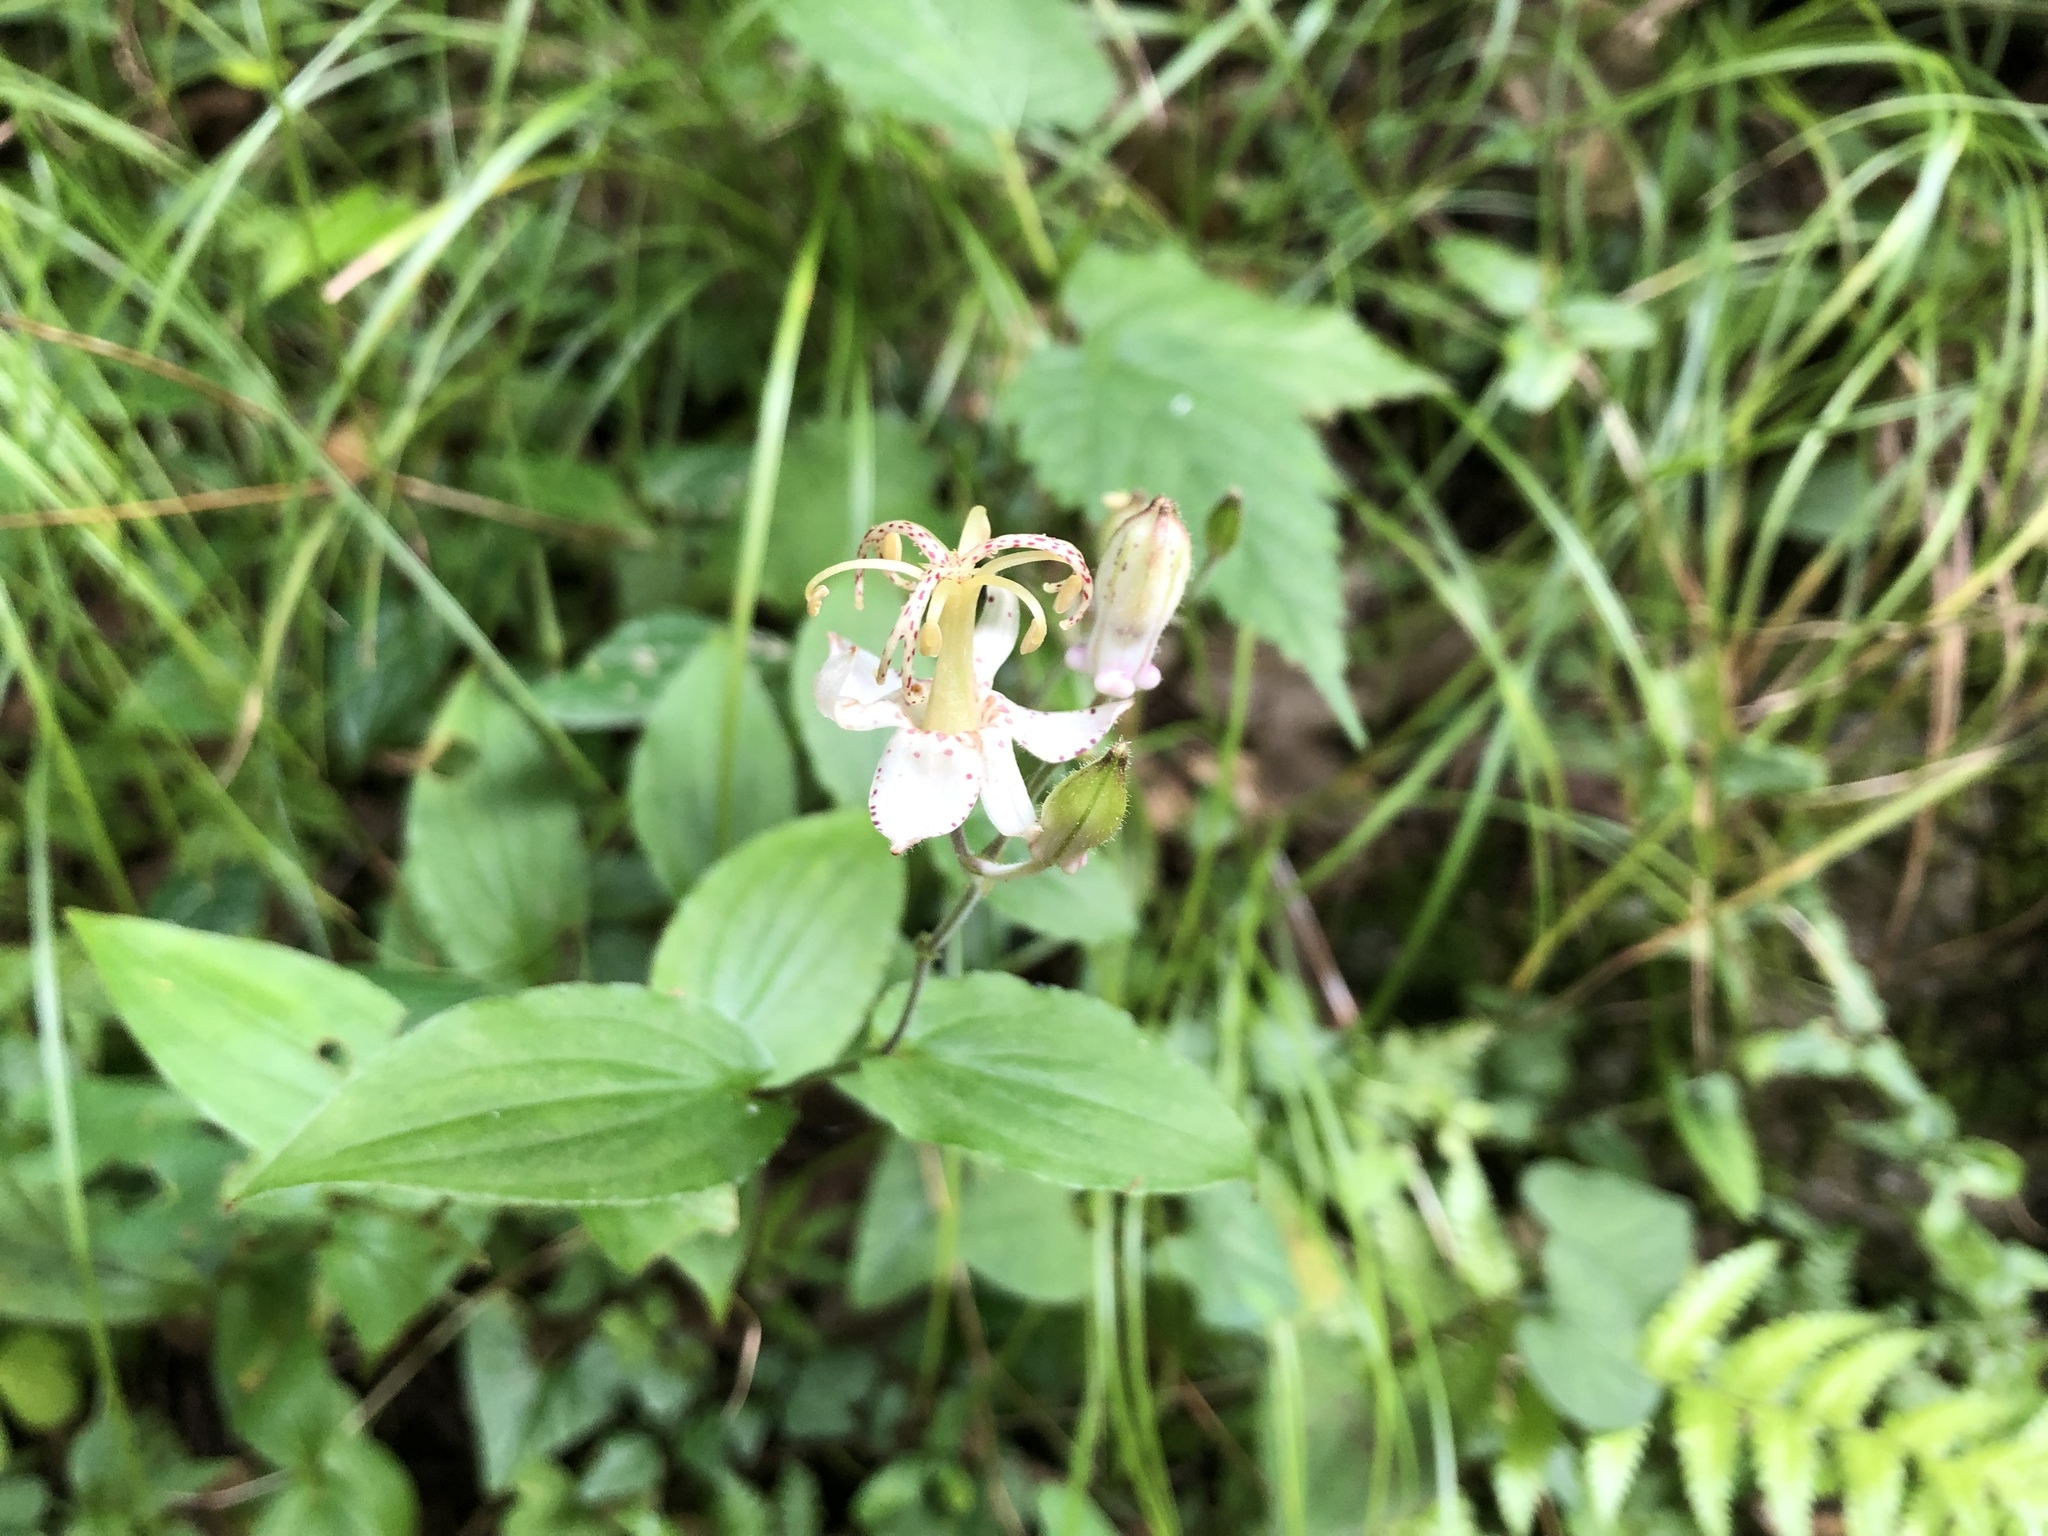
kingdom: Plantae
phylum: Tracheophyta
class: Liliopsida
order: Liliales
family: Liliaceae
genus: Tricyrtis
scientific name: Tricyrtis macropoda
